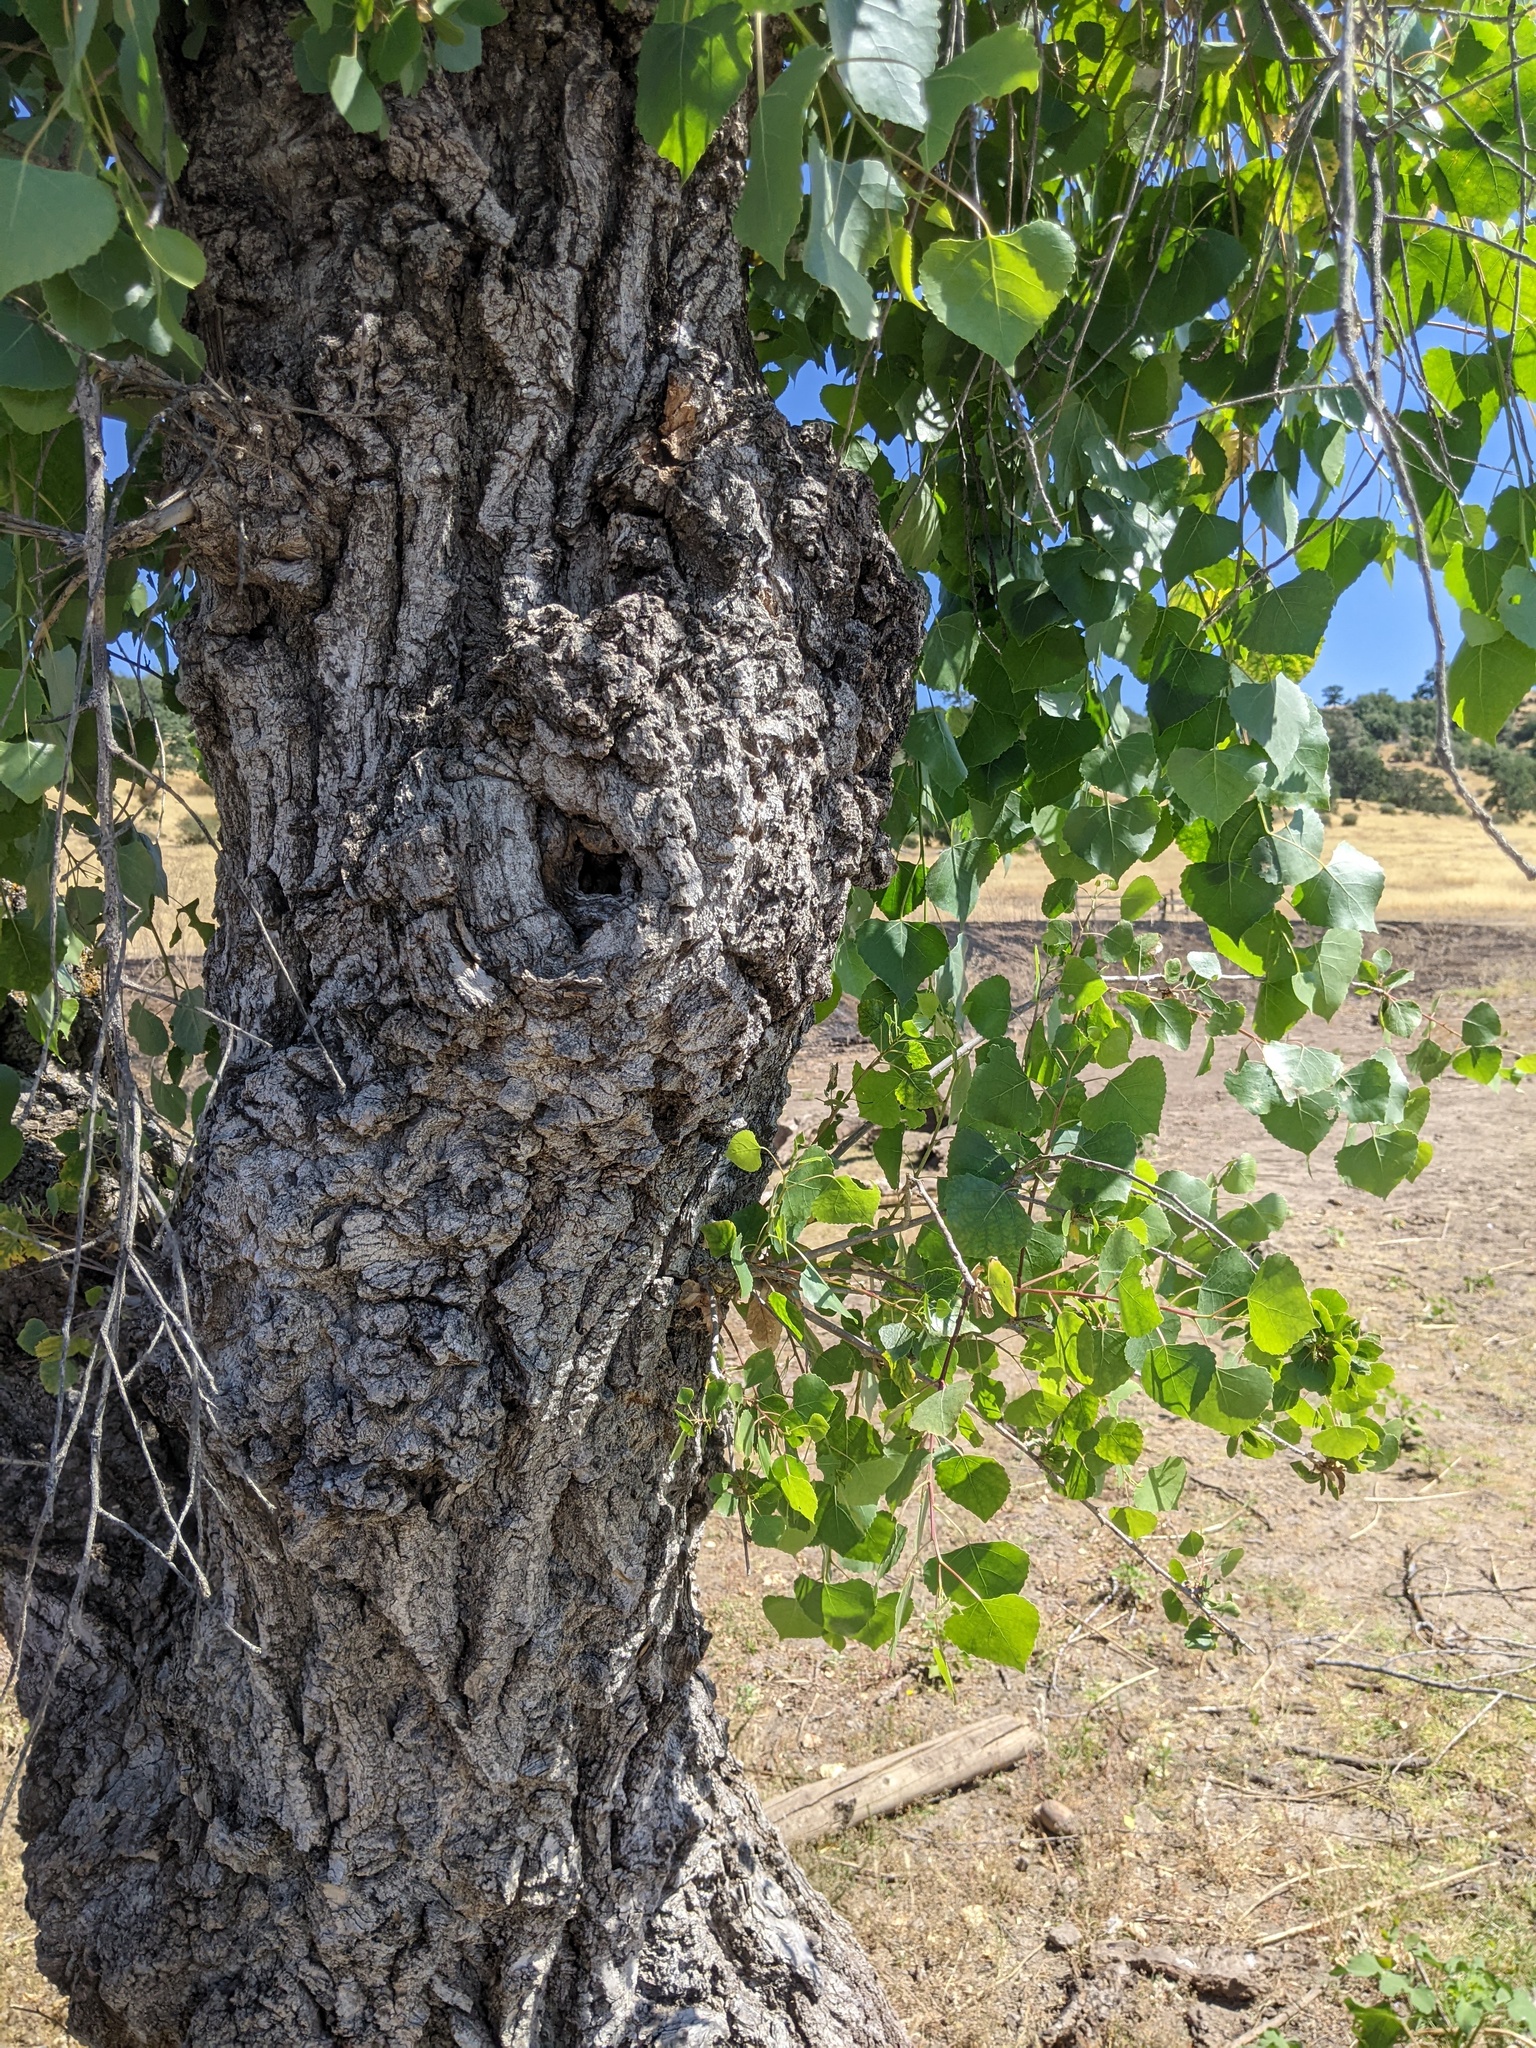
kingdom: Plantae
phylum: Tracheophyta
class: Magnoliopsida
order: Malpighiales
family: Salicaceae
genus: Populus
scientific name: Populus fremontii
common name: Fremont's cottonwood
